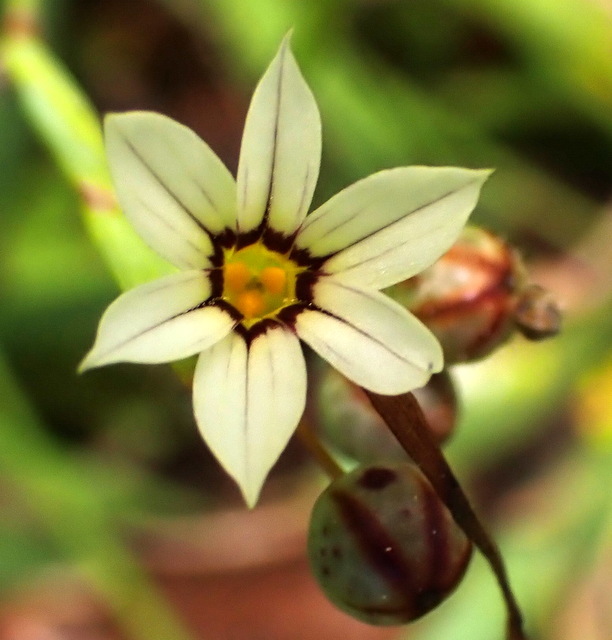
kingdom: Plantae
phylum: Tracheophyta
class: Liliopsida
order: Asparagales
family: Iridaceae
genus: Sisyrinchium
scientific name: Sisyrinchium micranthum
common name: Bermuda pigroot
